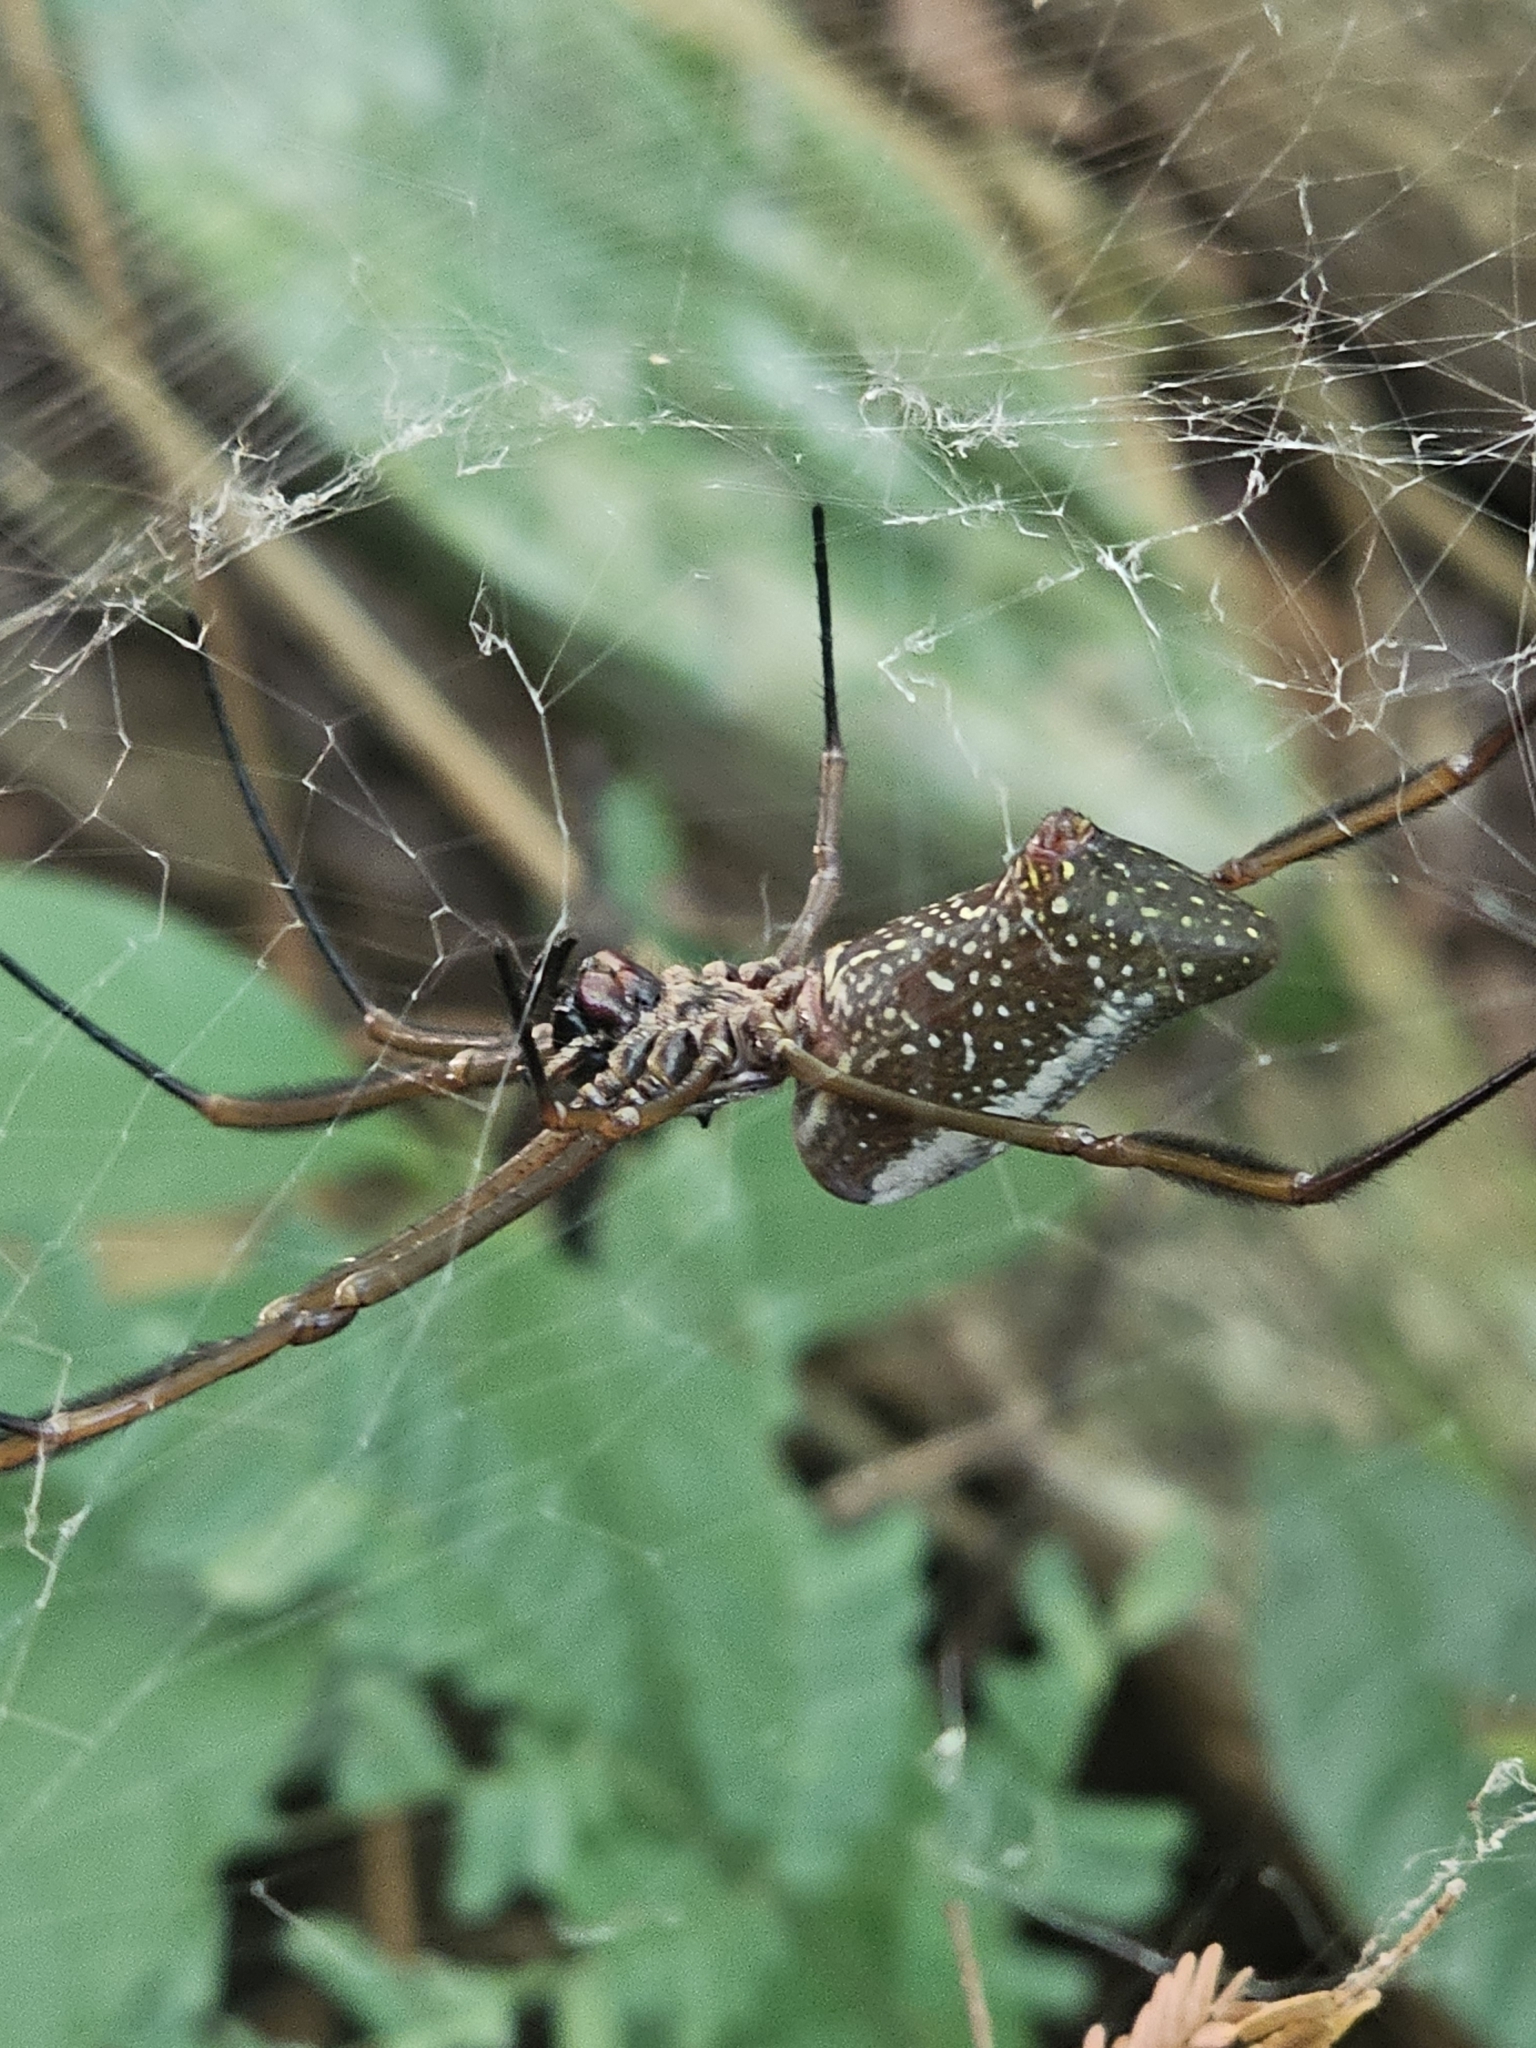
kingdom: Animalia
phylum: Arthropoda
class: Arachnida
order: Araneae
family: Araneidae
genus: Nephila
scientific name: Nephila cornuta
